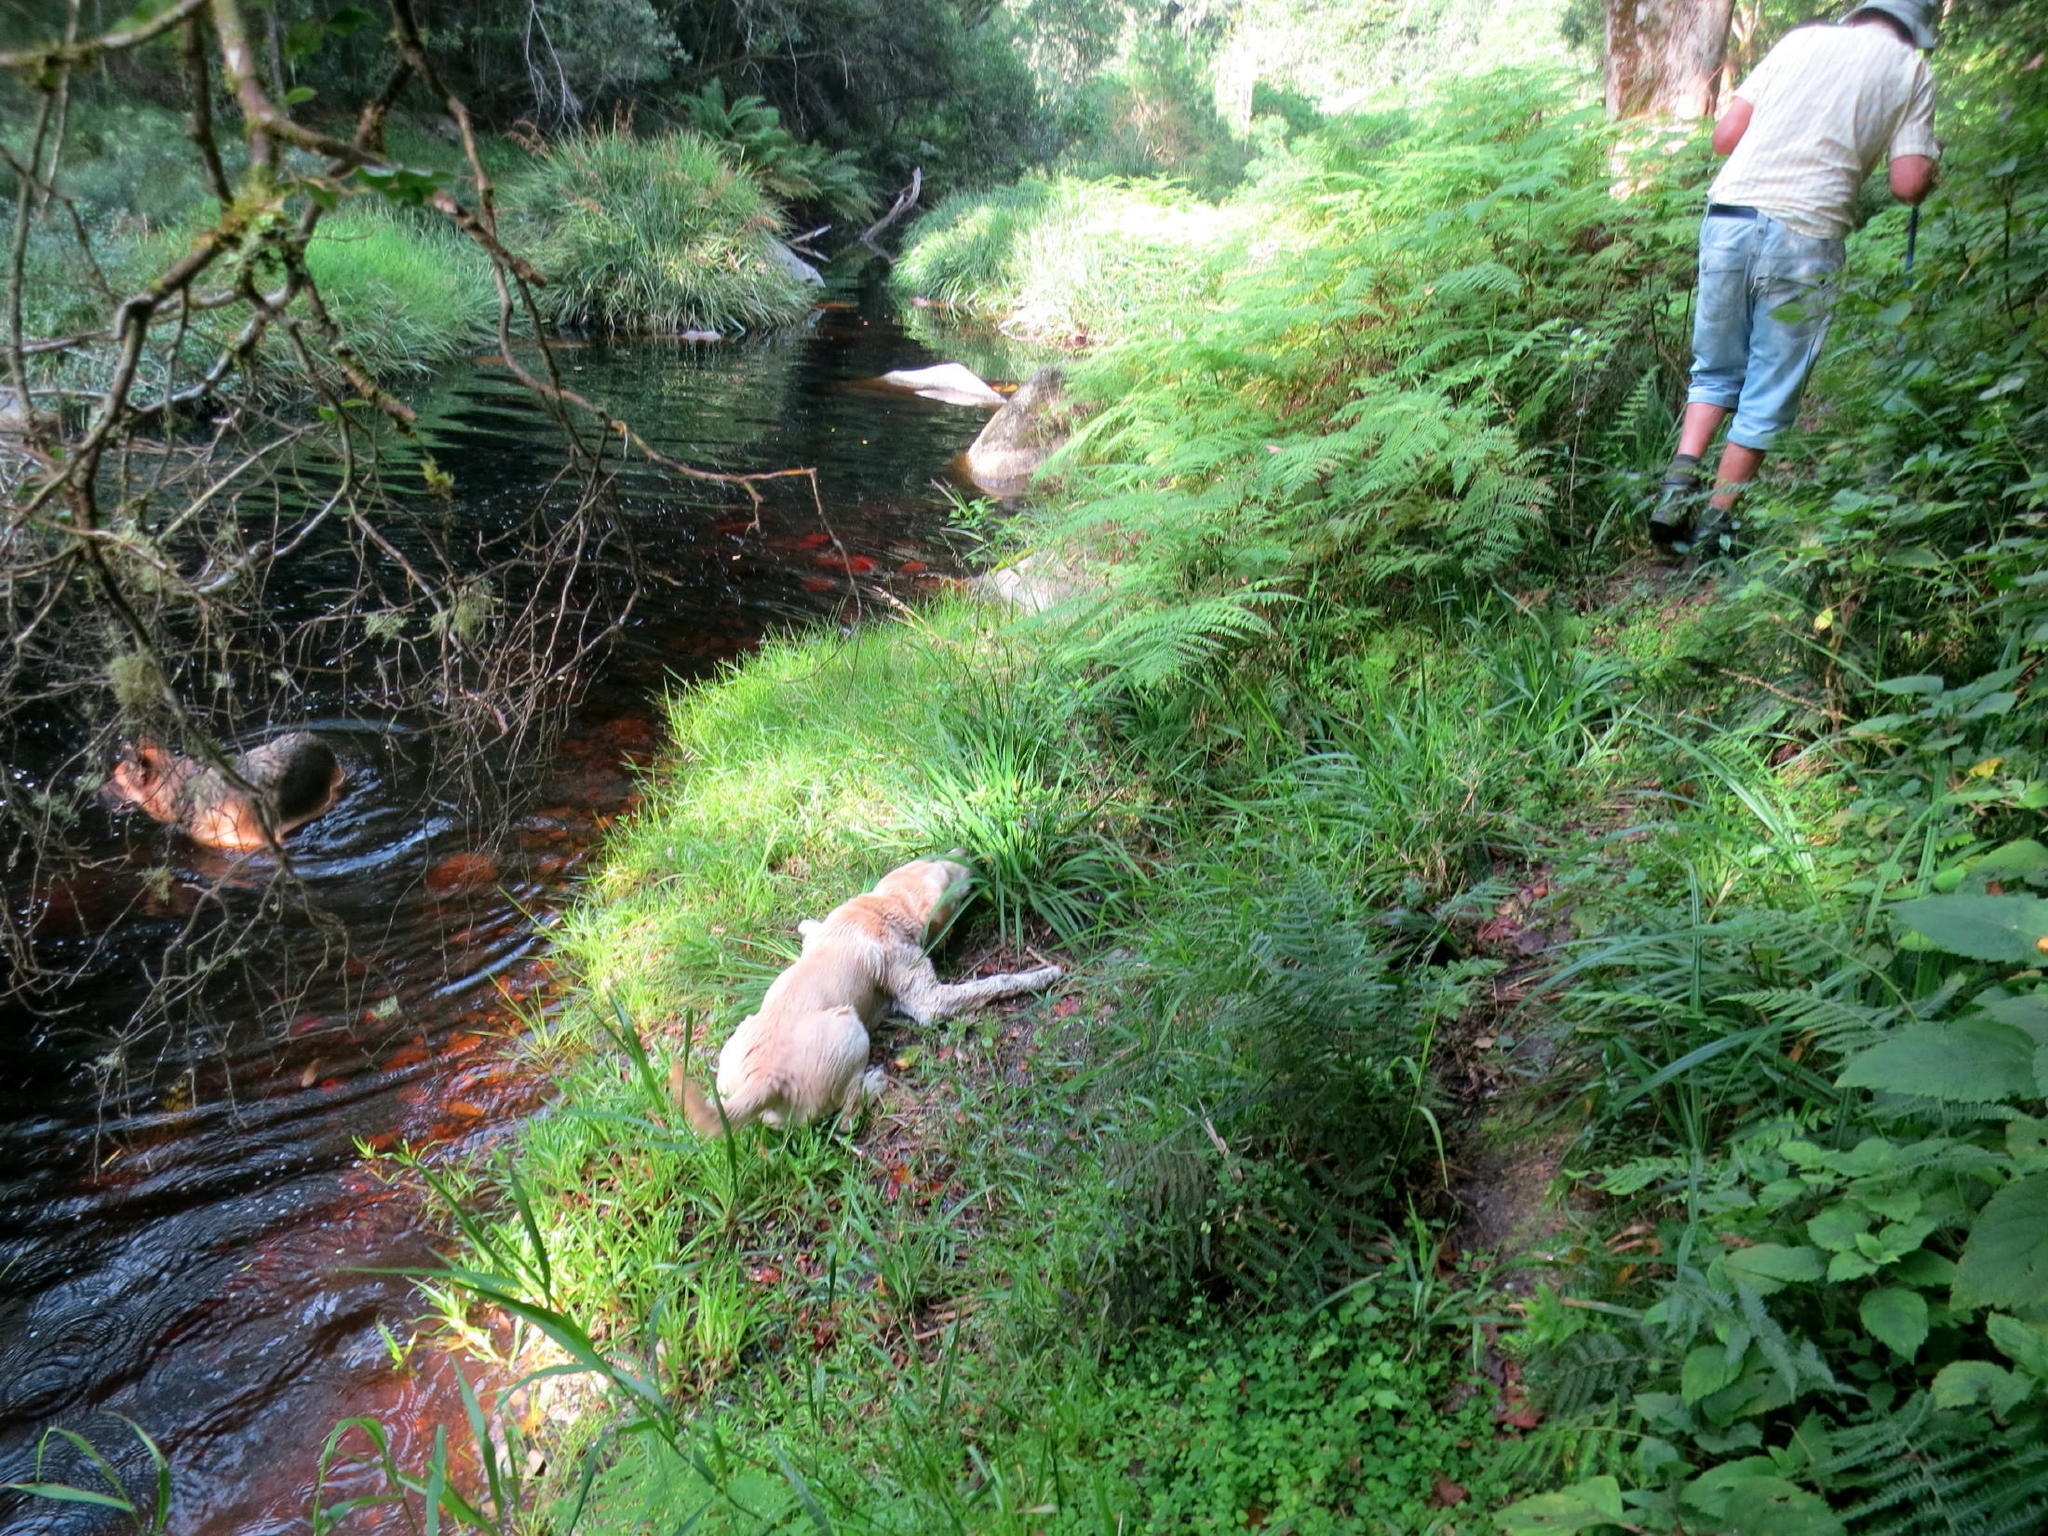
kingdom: Plantae
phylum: Tracheophyta
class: Polypodiopsida
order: Polypodiales
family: Dennstaedtiaceae
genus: Hypolepis
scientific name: Hypolepis sparsisora
